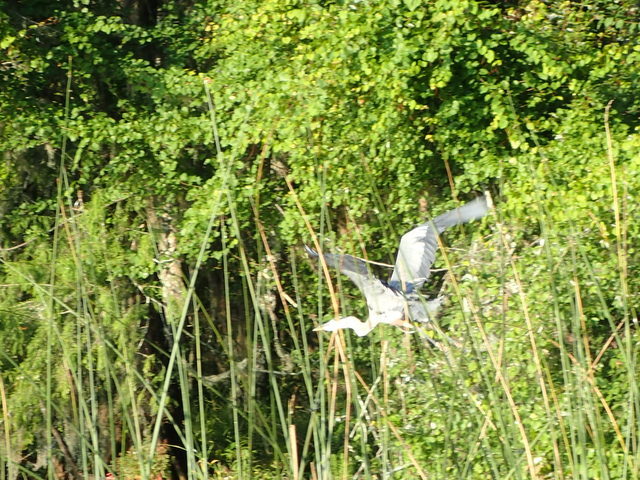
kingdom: Animalia
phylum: Chordata
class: Aves
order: Pelecaniformes
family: Ardeidae
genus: Ardea
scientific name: Ardea herodias
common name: Great blue heron
